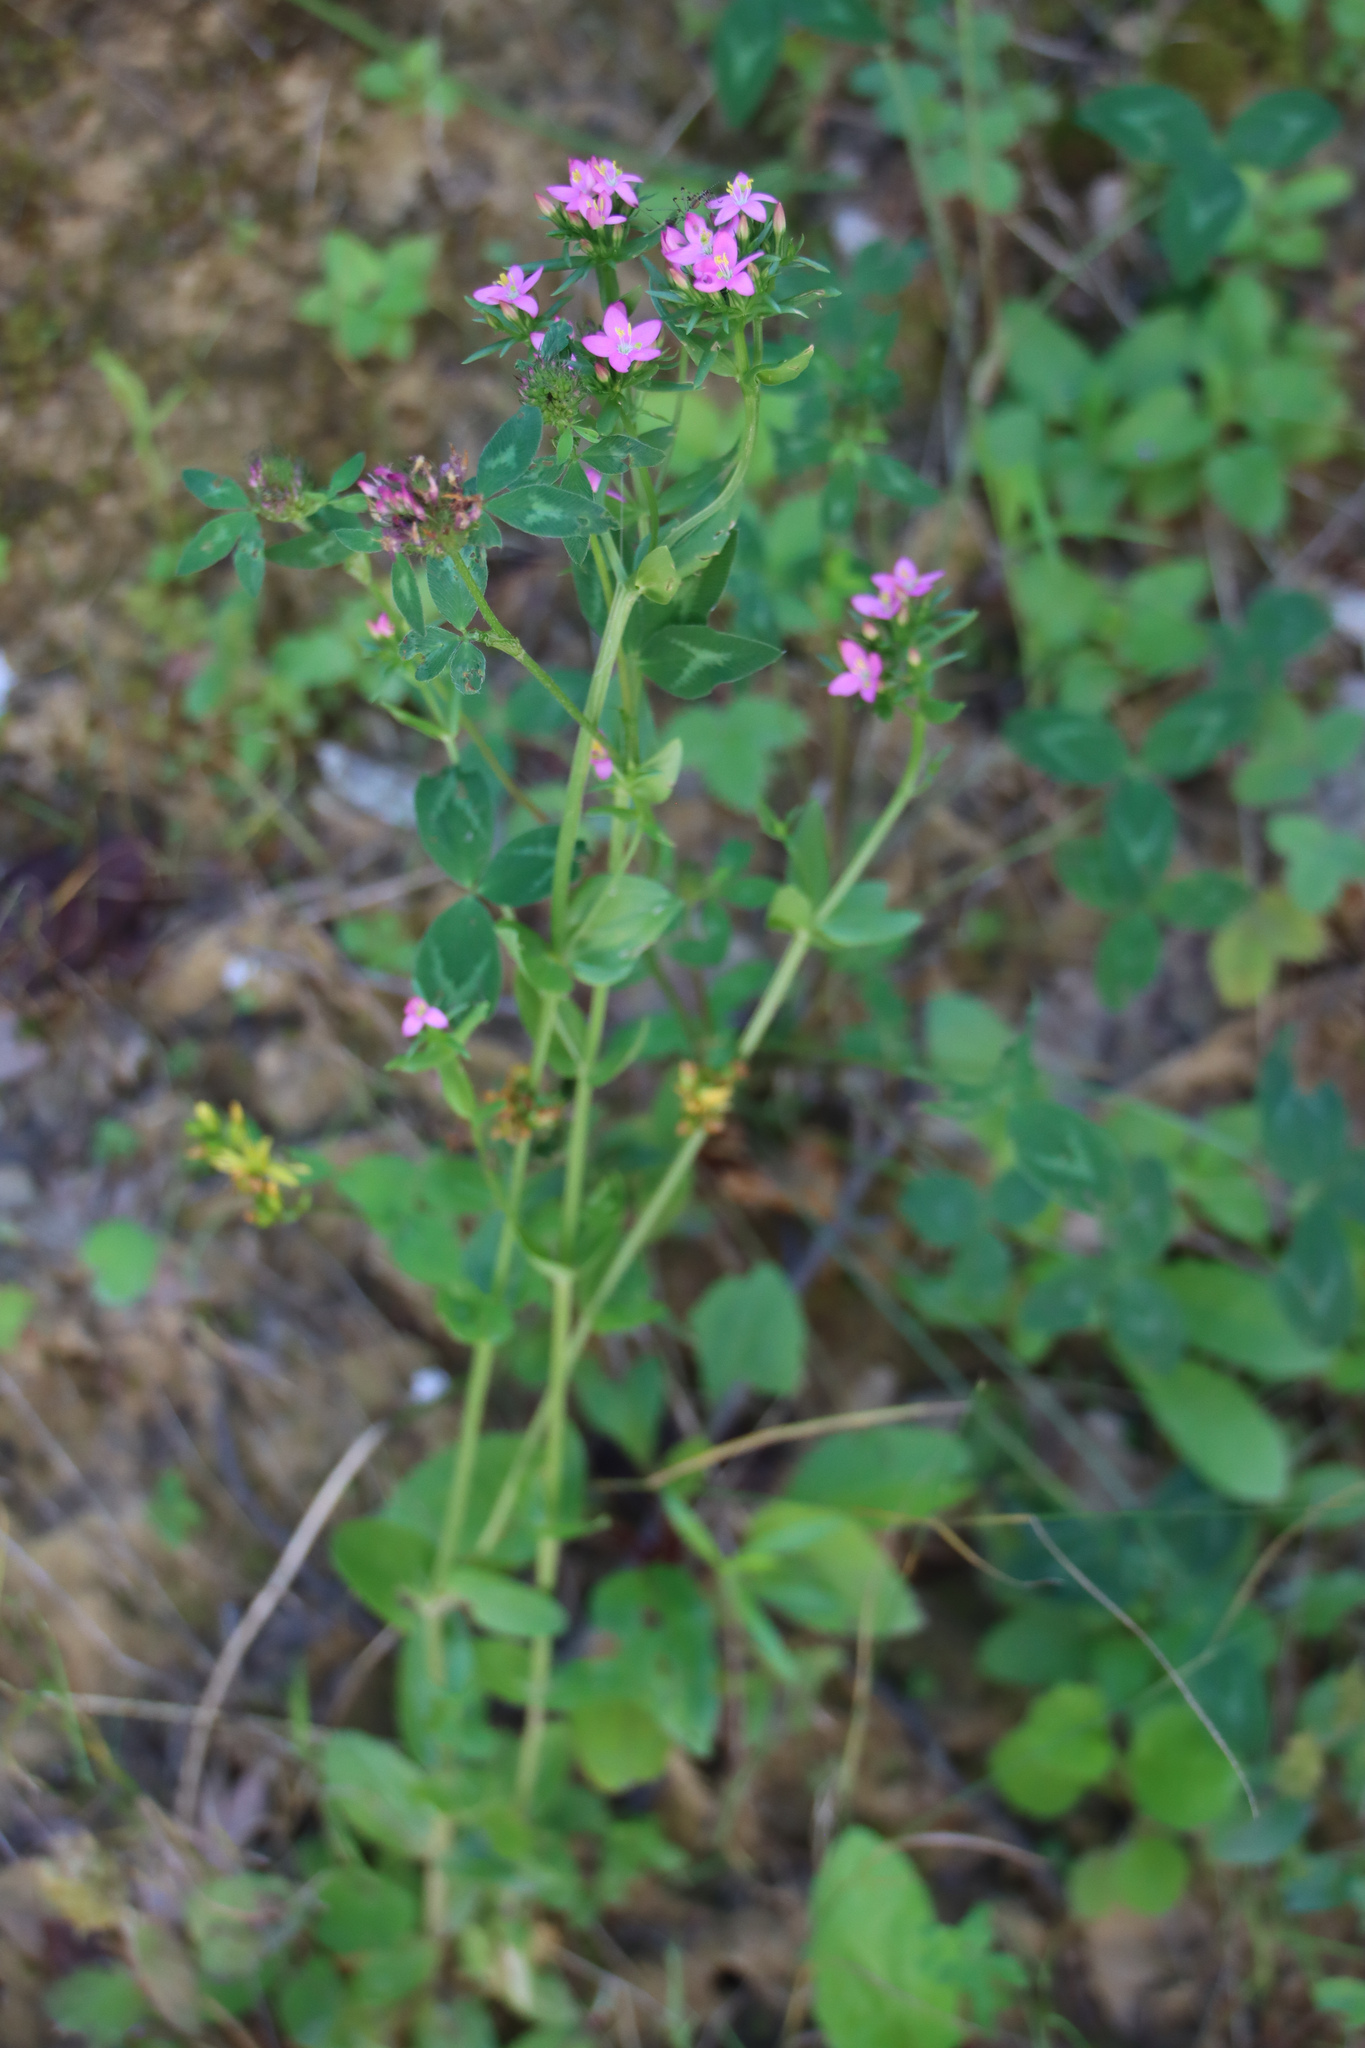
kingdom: Plantae
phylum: Tracheophyta
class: Magnoliopsida
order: Gentianales
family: Gentianaceae
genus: Centaurium
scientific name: Centaurium erythraea
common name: Common centaury
